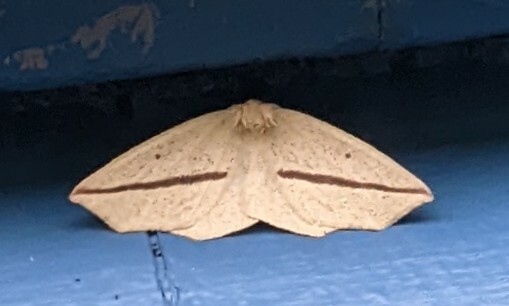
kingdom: Animalia
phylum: Arthropoda
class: Insecta
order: Lepidoptera
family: Geometridae
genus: Tetracis
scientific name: Tetracis crocallata
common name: Yellow slant-line
